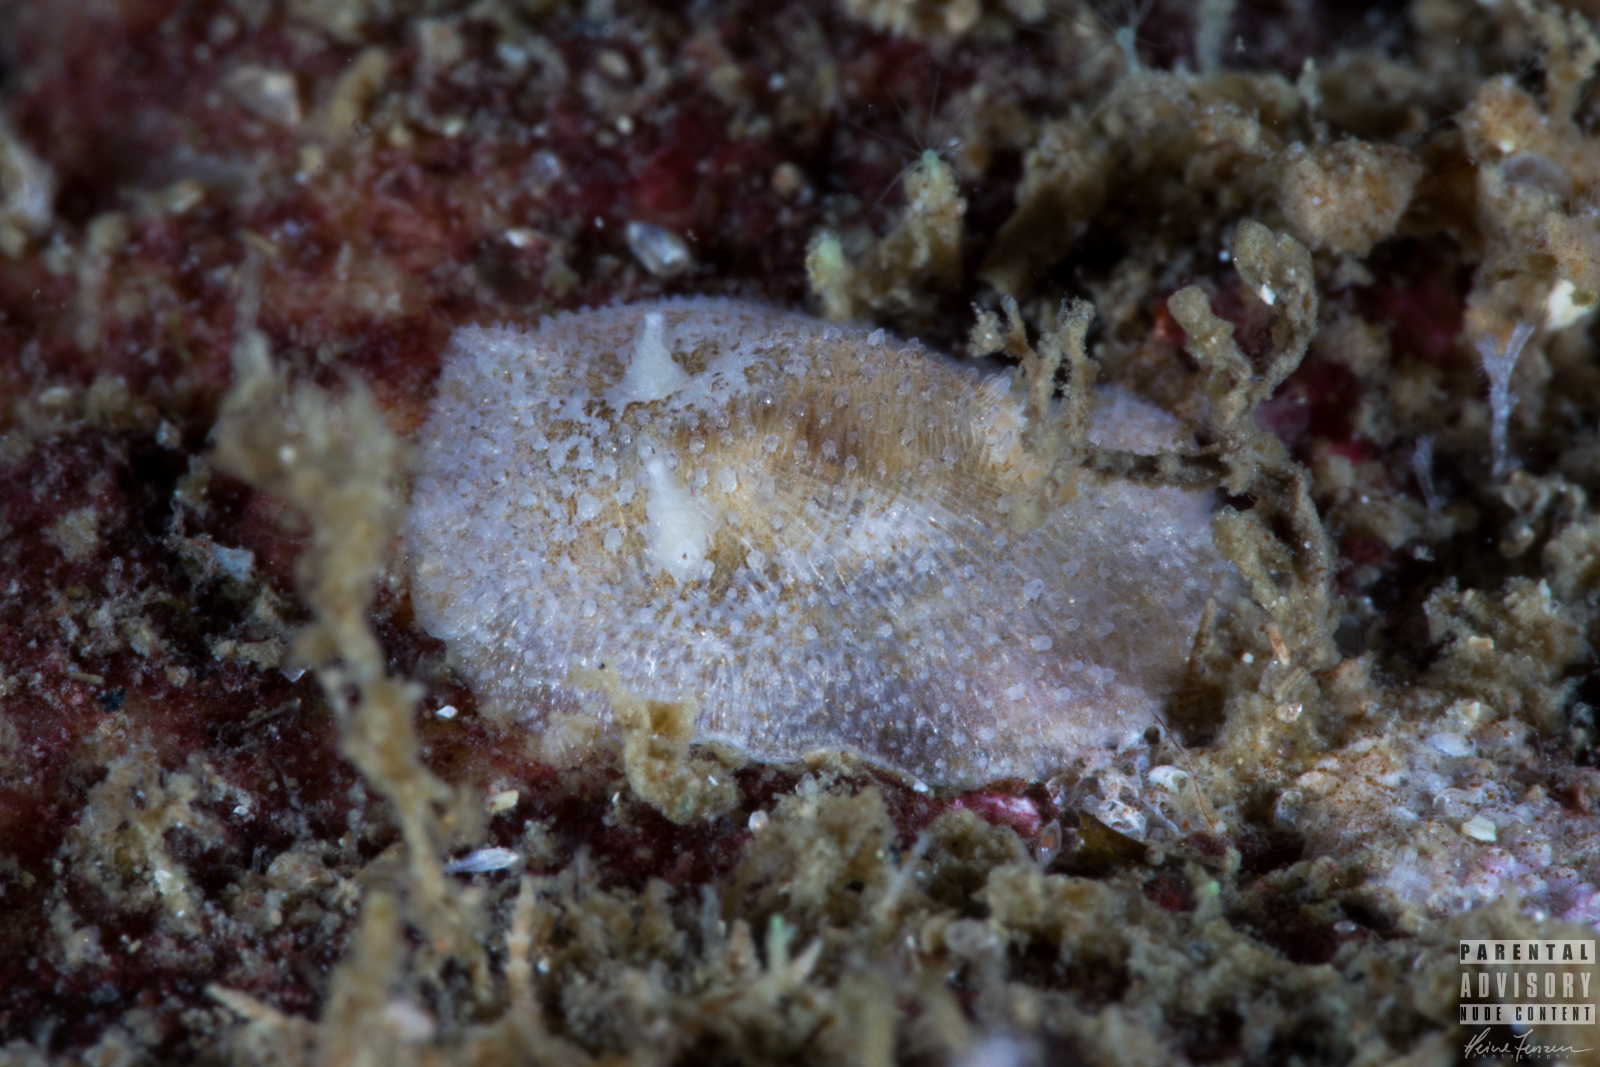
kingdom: Animalia
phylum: Mollusca
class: Gastropoda
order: Nudibranchia
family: Onchidorididae
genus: Atalodoris
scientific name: Atalodoris sparsa
